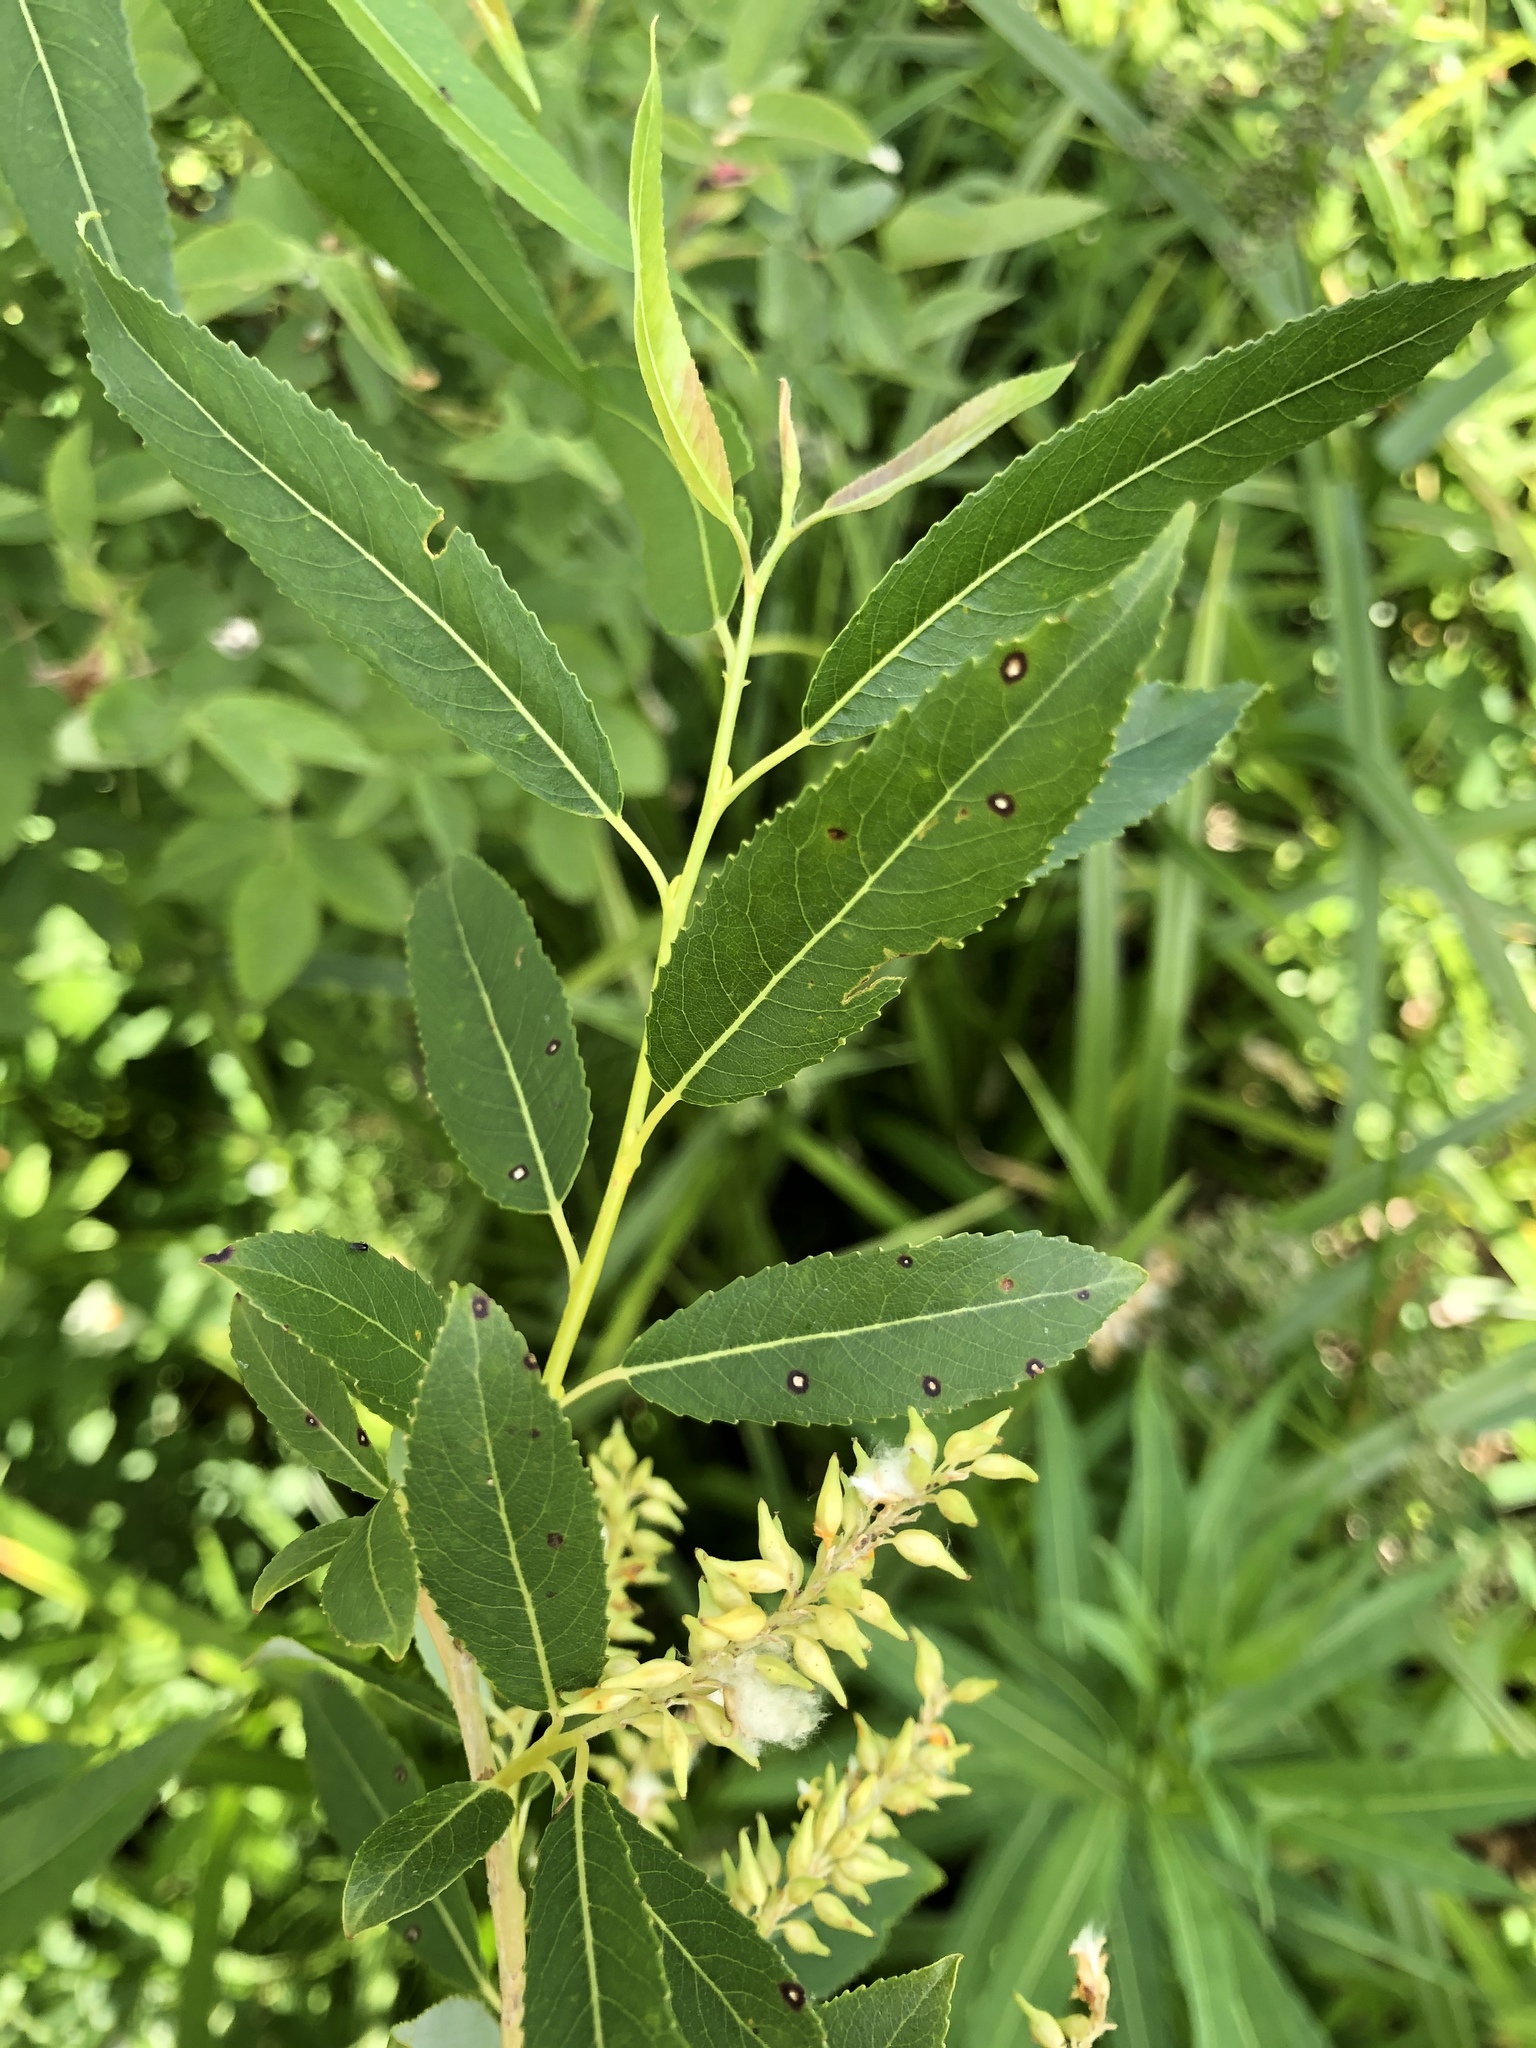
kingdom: Plantae
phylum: Tracheophyta
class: Magnoliopsida
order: Malpighiales
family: Salicaceae
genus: Salix
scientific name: Salix triandra
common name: Almond willow
